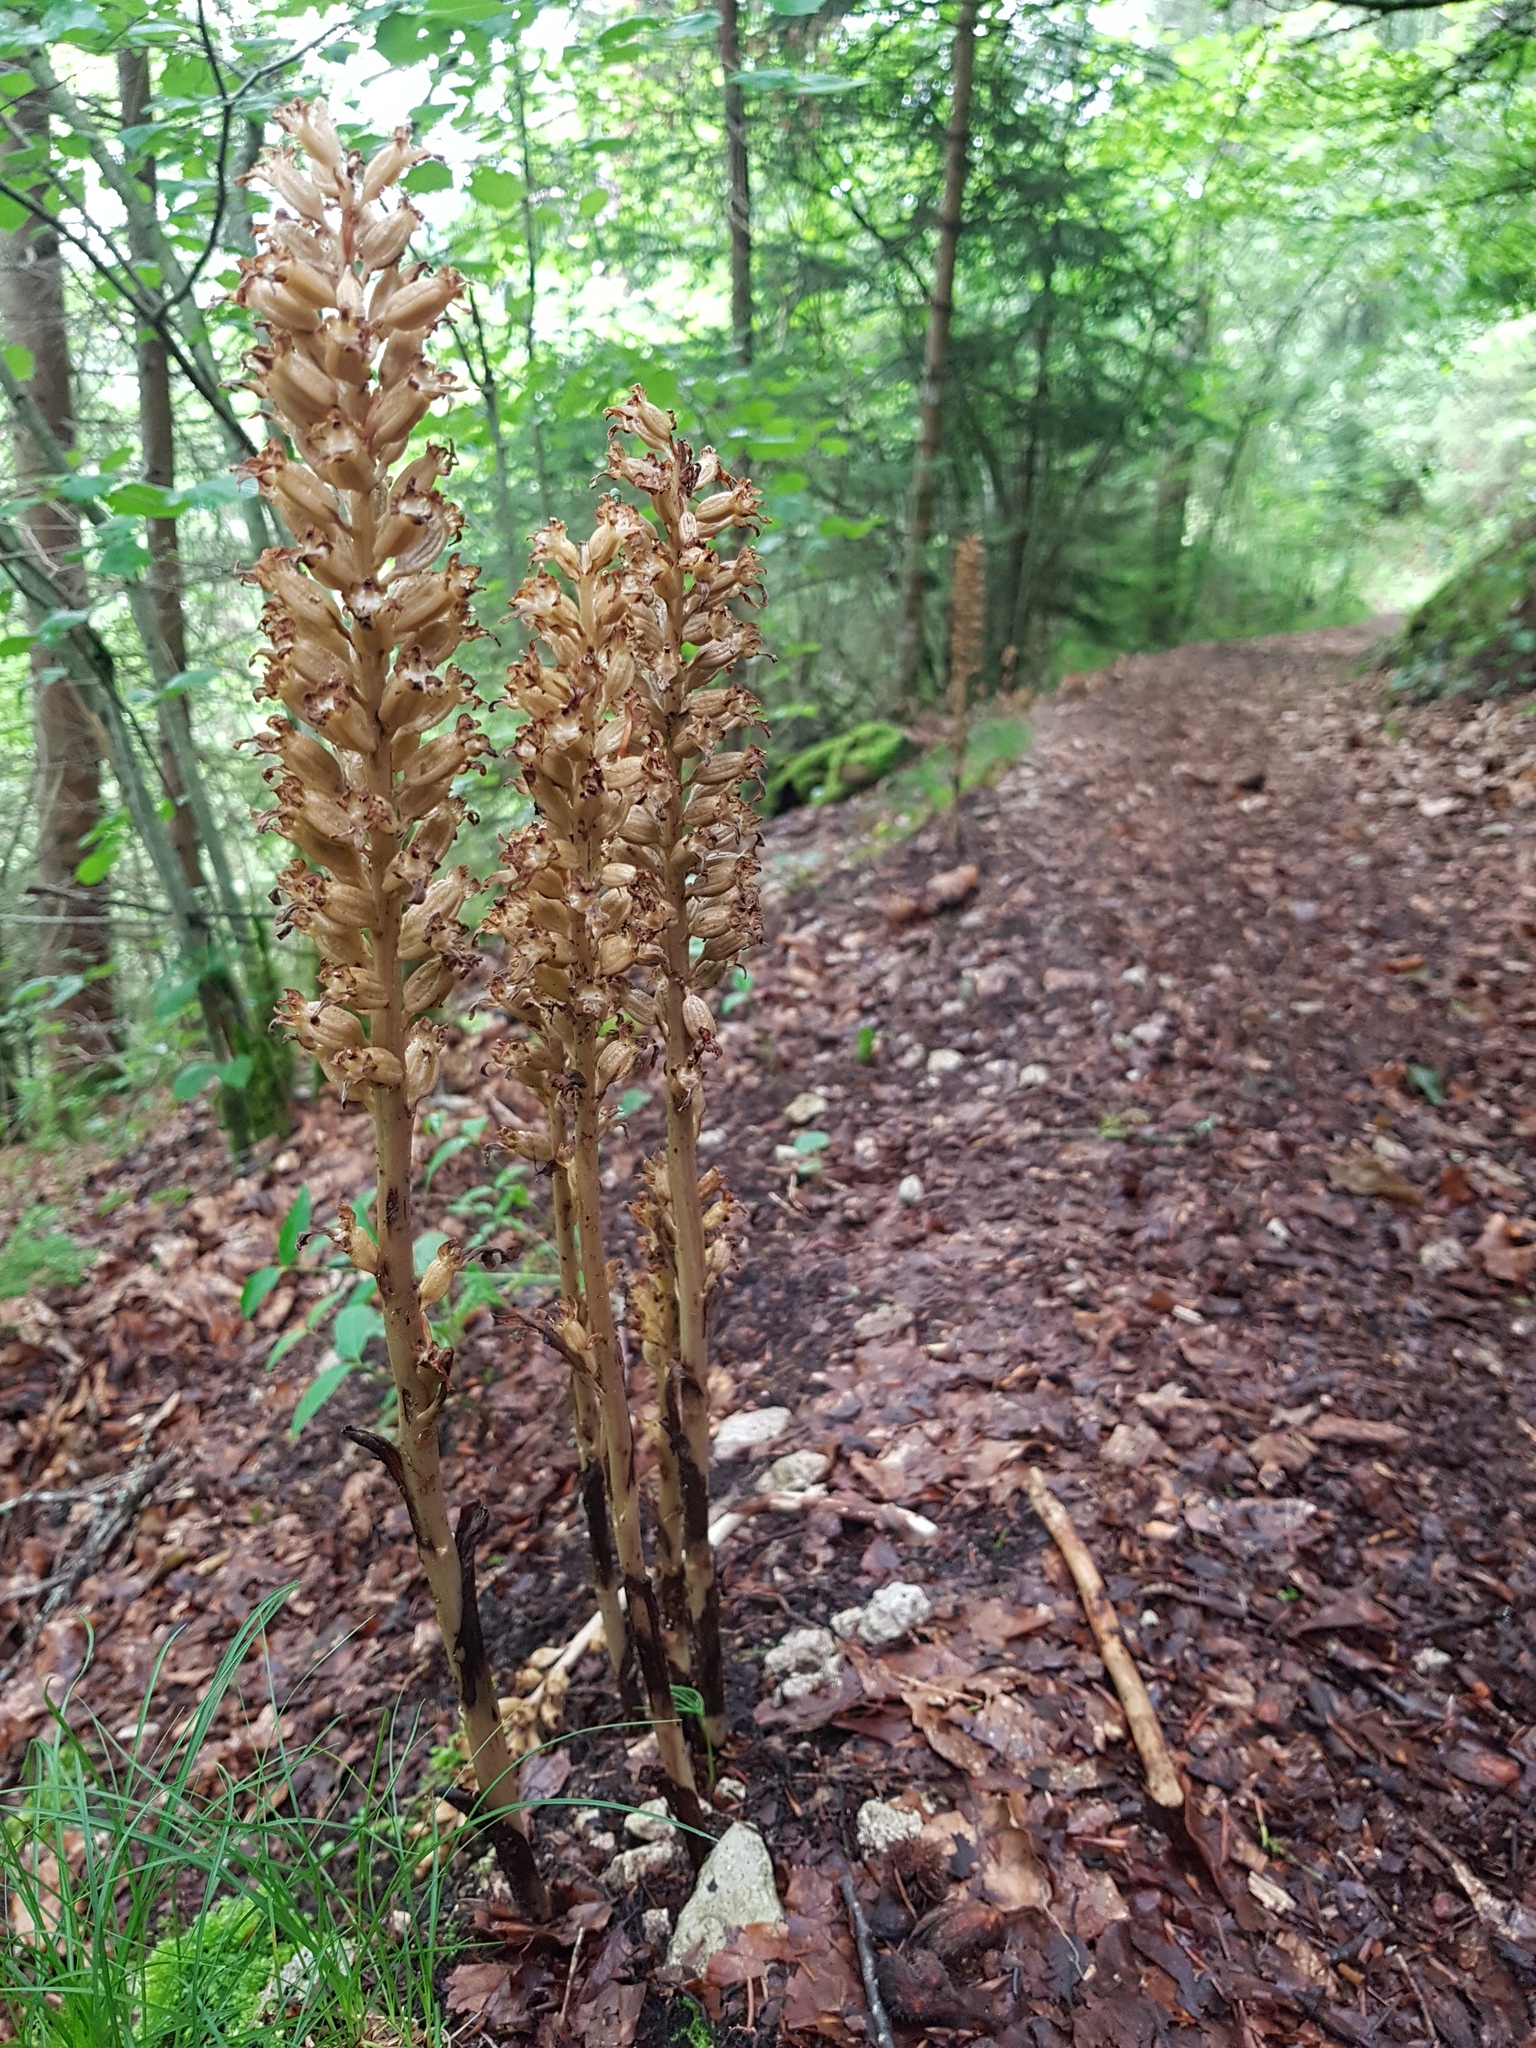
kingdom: Plantae
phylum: Tracheophyta
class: Liliopsida
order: Asparagales
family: Orchidaceae
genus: Neottia
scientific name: Neottia nidus-avis
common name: Bird's-nest orchid
